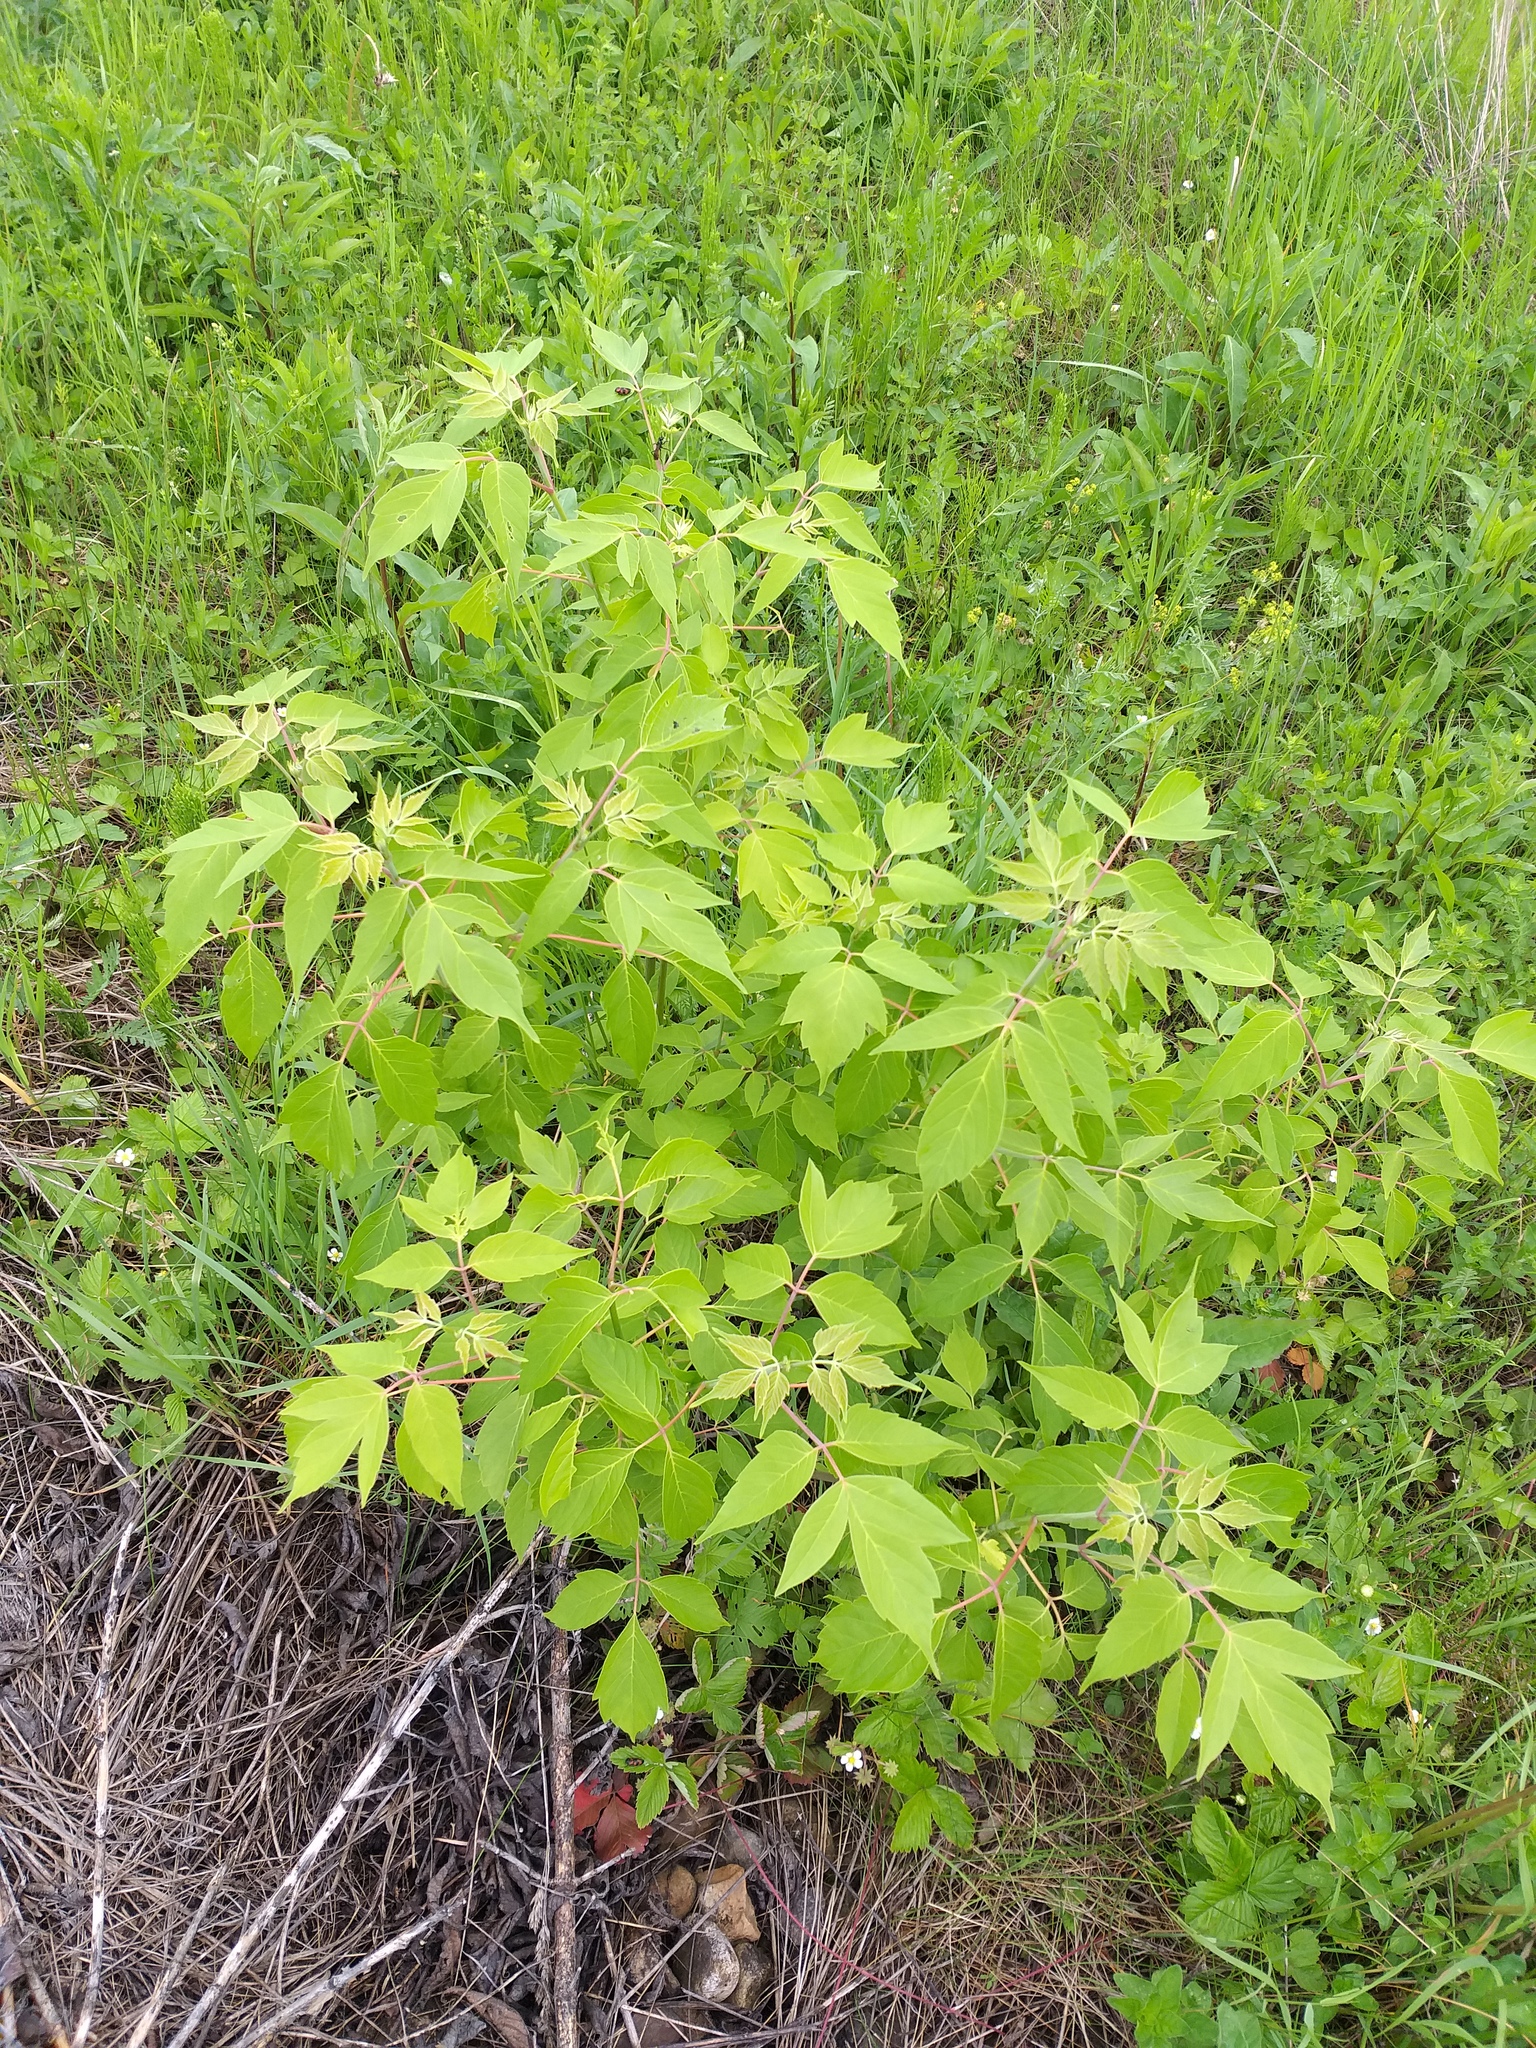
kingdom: Plantae
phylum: Tracheophyta
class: Magnoliopsida
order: Sapindales
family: Sapindaceae
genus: Acer
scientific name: Acer negundo
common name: Ashleaf maple
